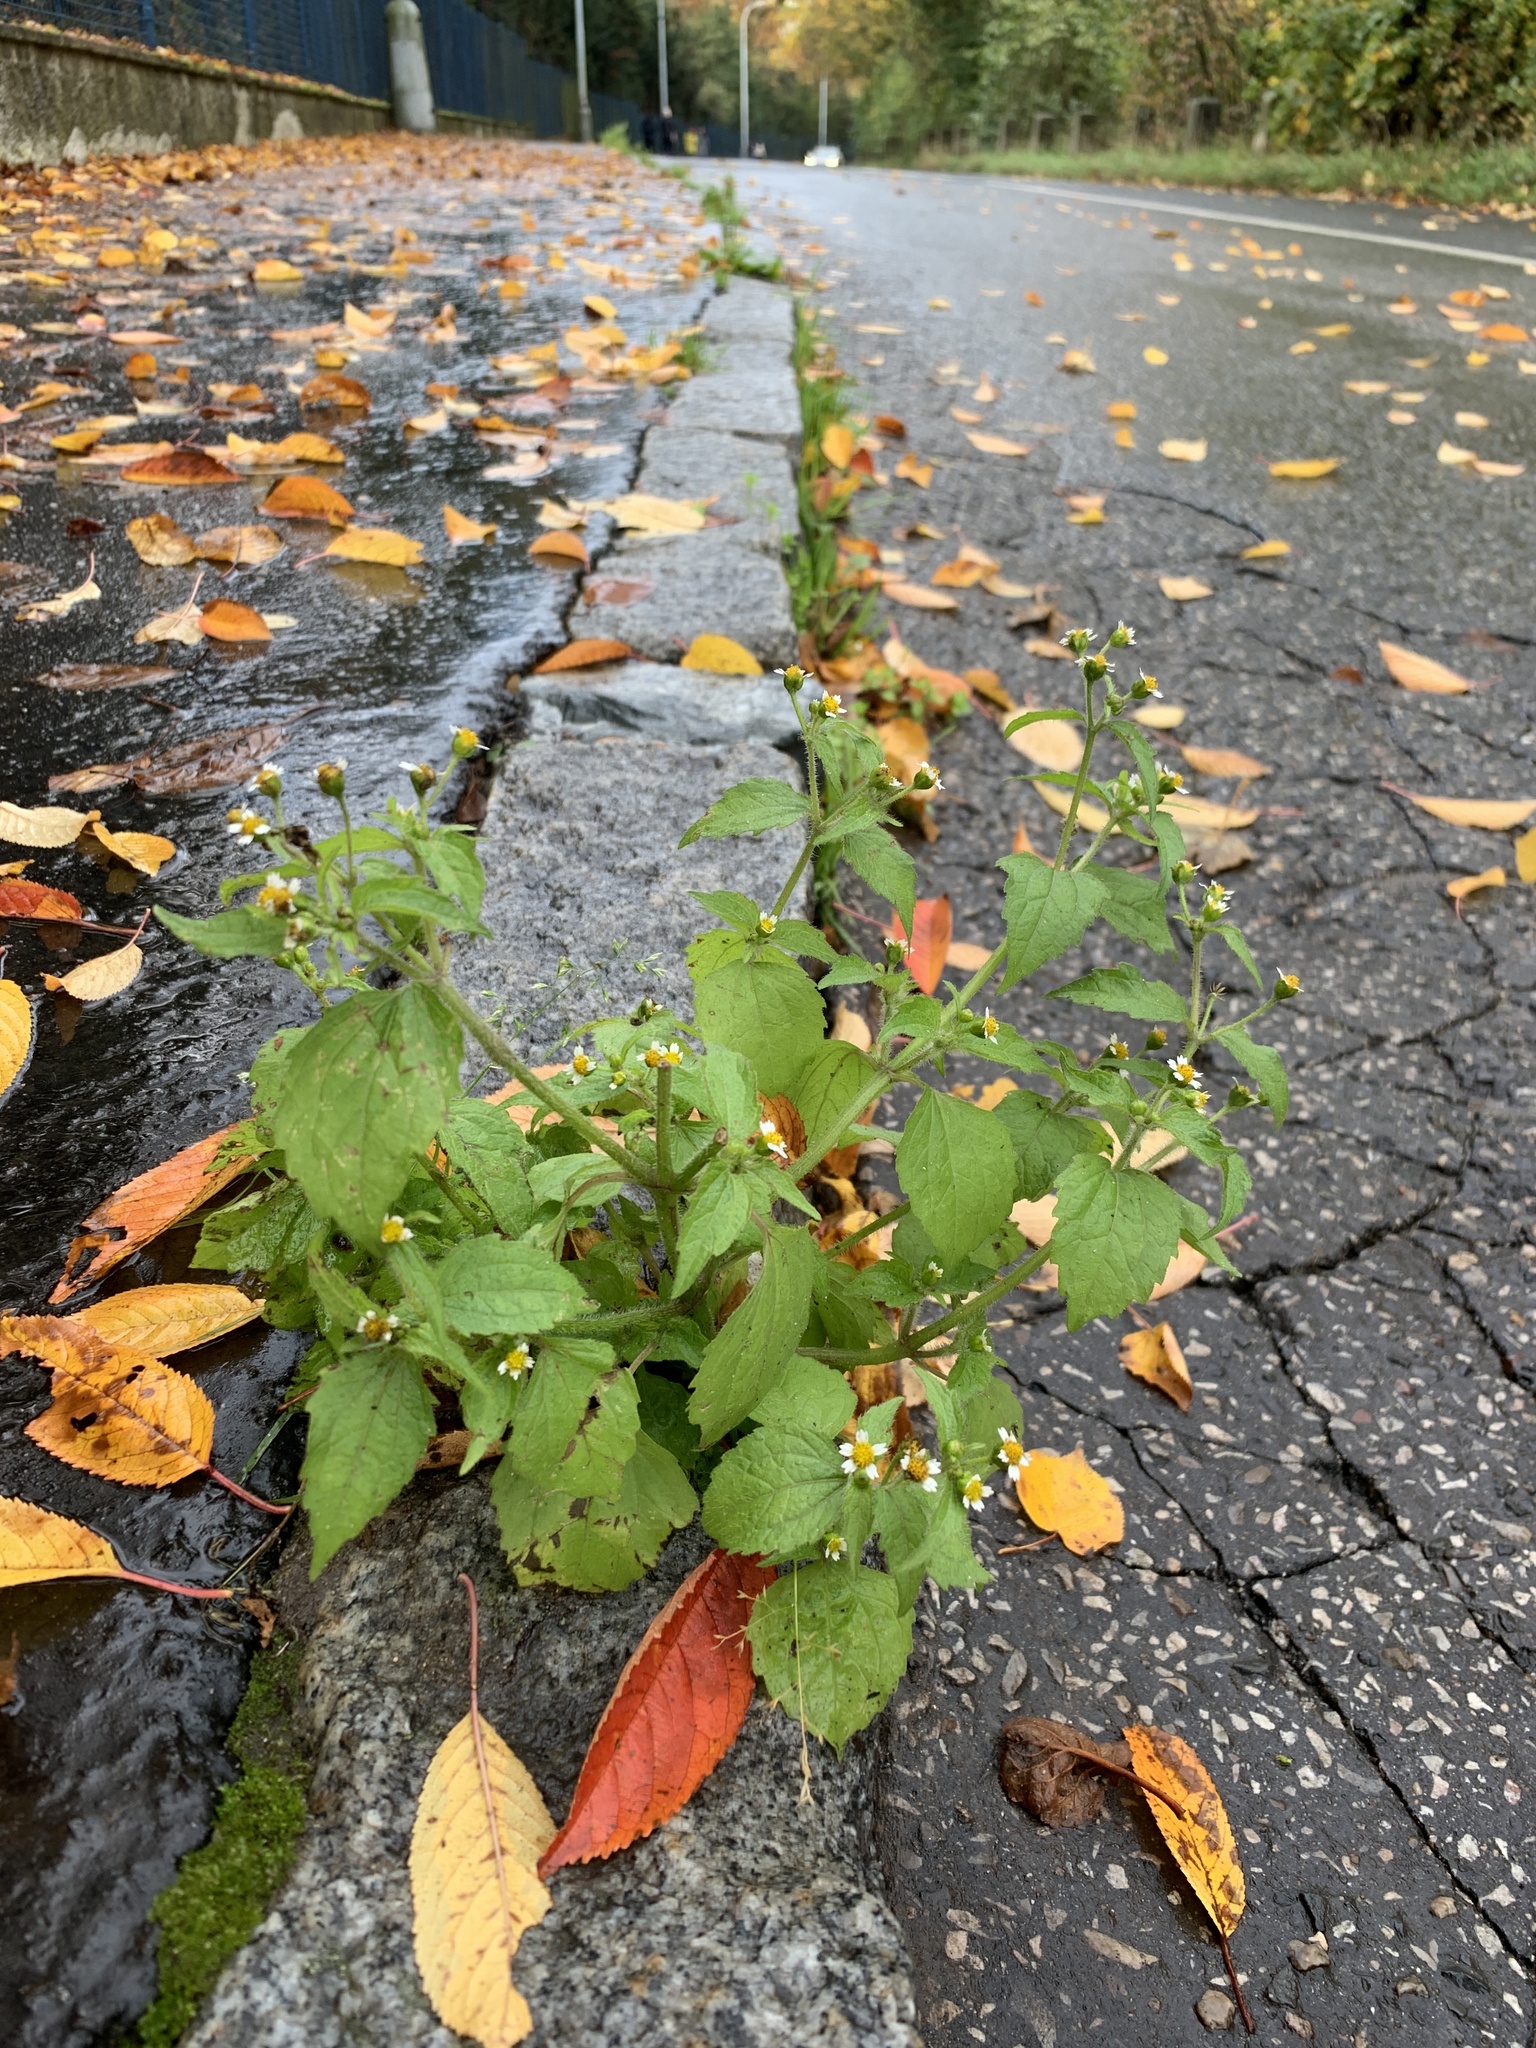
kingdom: Plantae
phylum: Tracheophyta
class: Magnoliopsida
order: Asterales
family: Asteraceae
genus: Galinsoga
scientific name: Galinsoga quadriradiata
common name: Shaggy soldier
